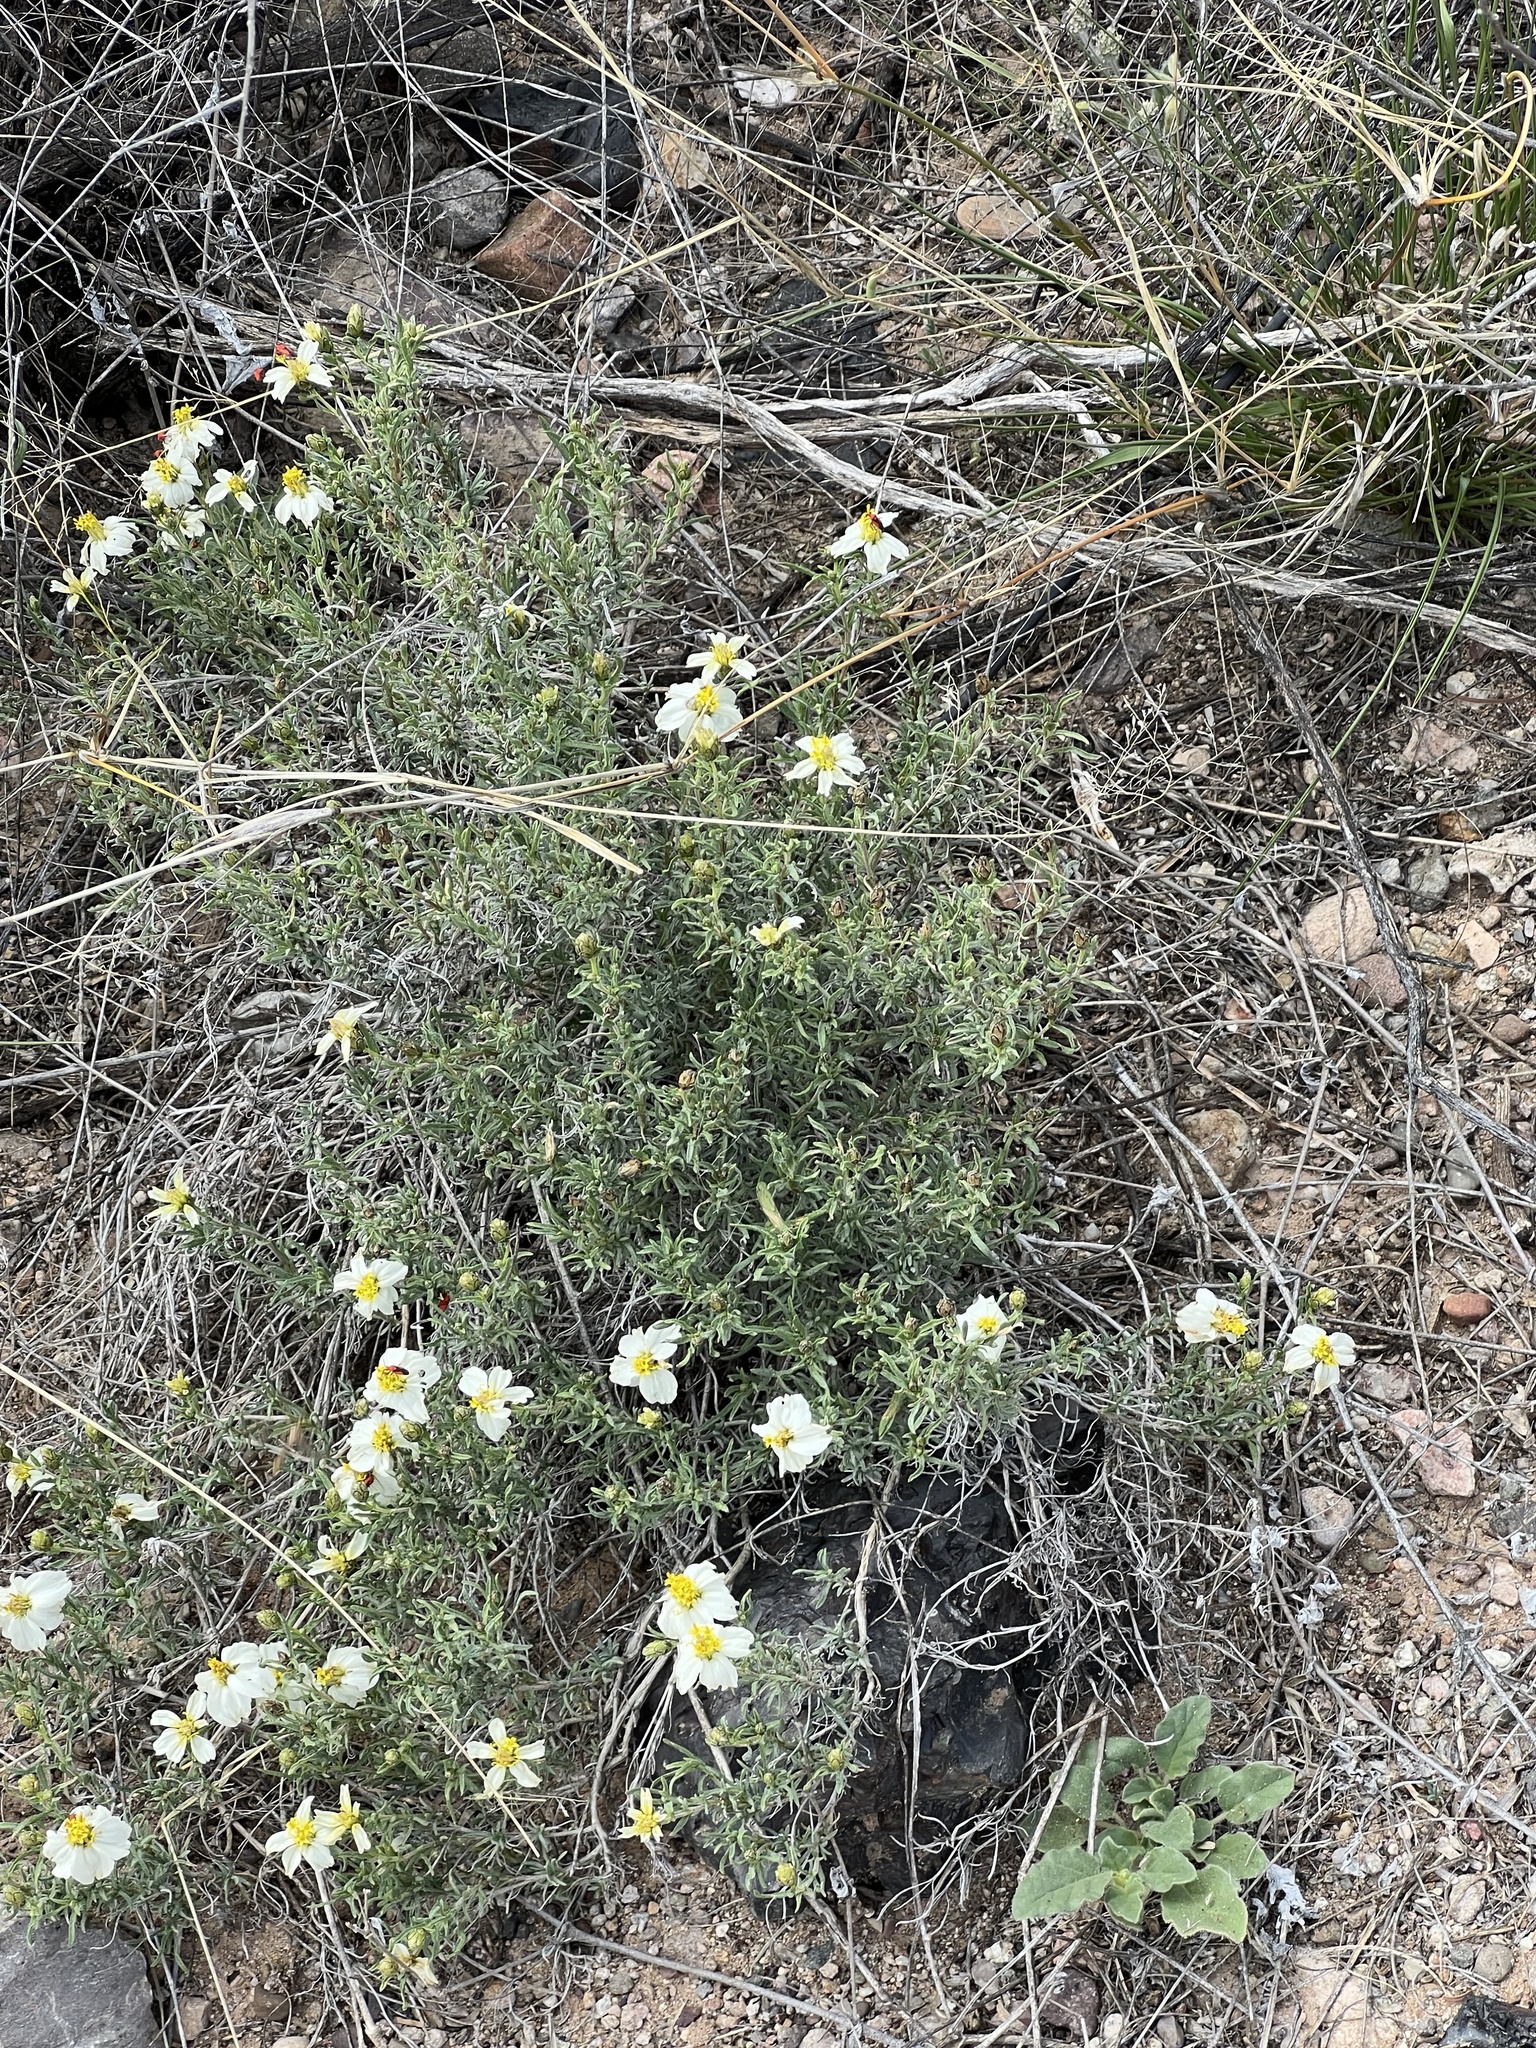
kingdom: Plantae
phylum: Tracheophyta
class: Magnoliopsida
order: Asterales
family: Asteraceae
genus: Zinnia
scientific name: Zinnia acerosa
